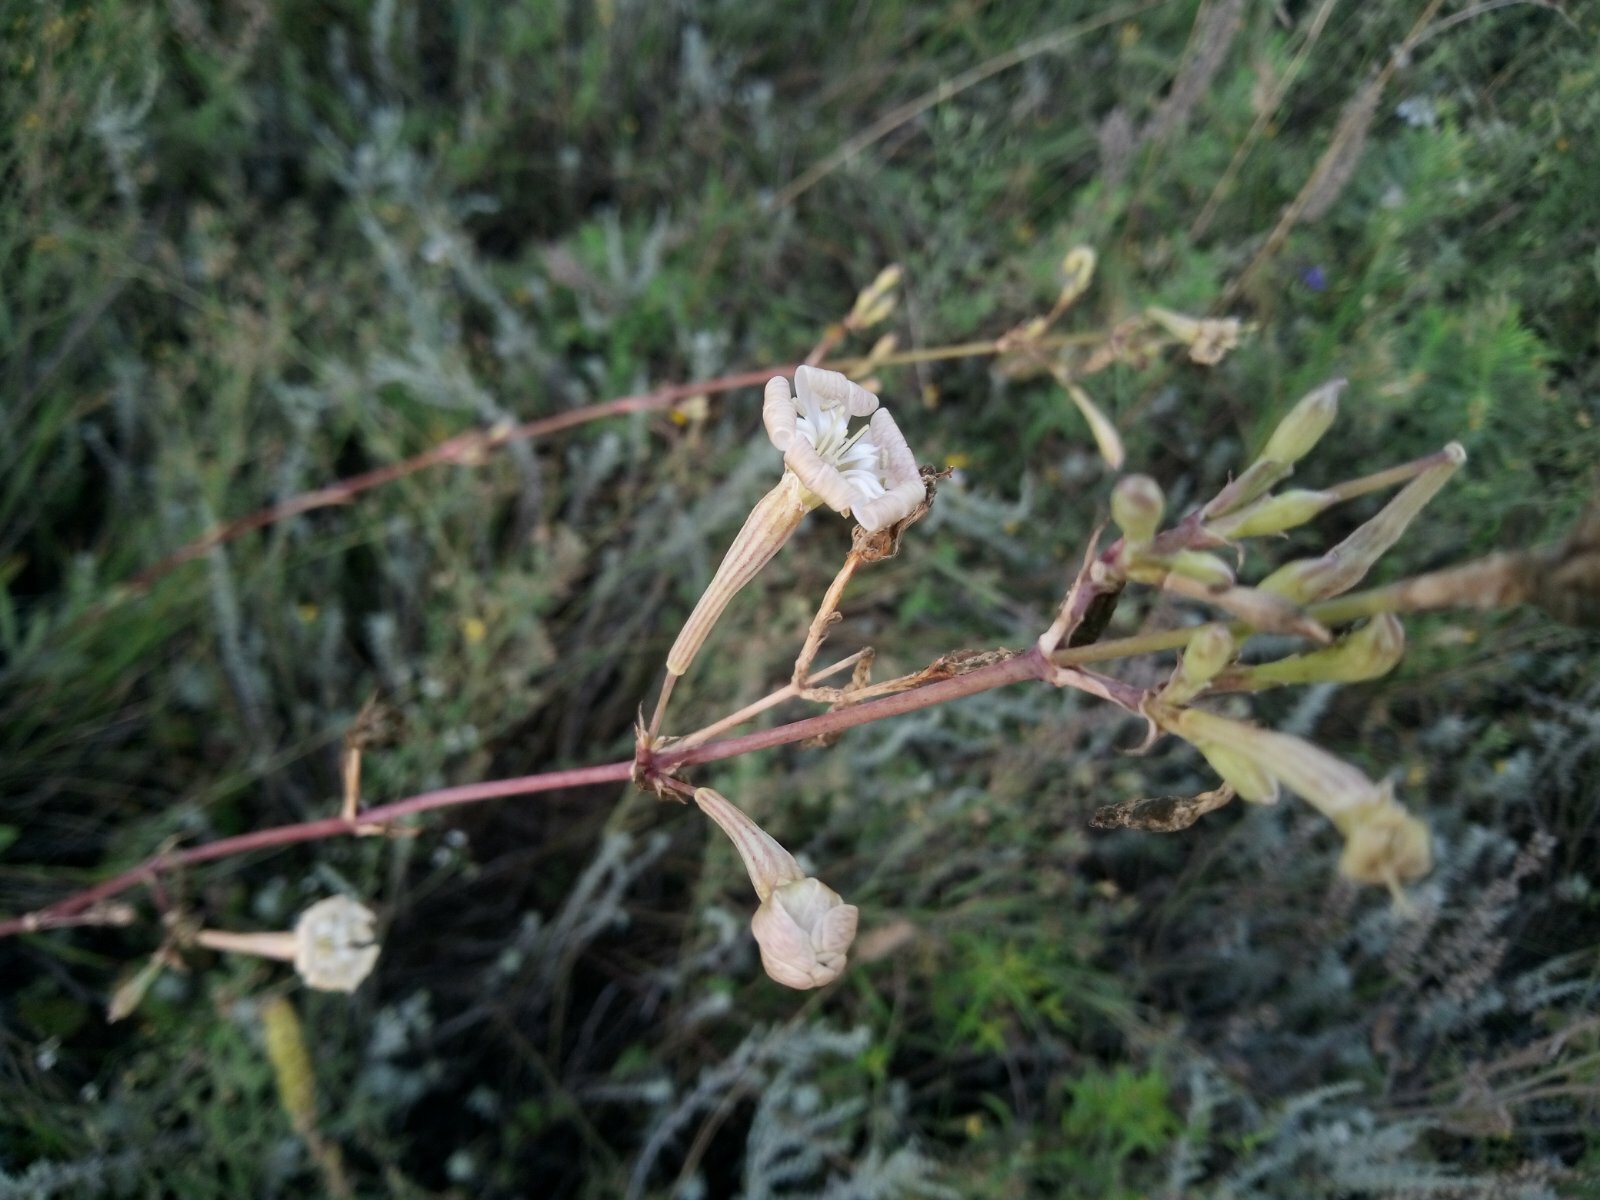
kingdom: Plantae
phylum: Tracheophyta
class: Magnoliopsida
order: Caryophyllales
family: Caryophyllaceae
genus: Silene
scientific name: Silene bupleuroides
